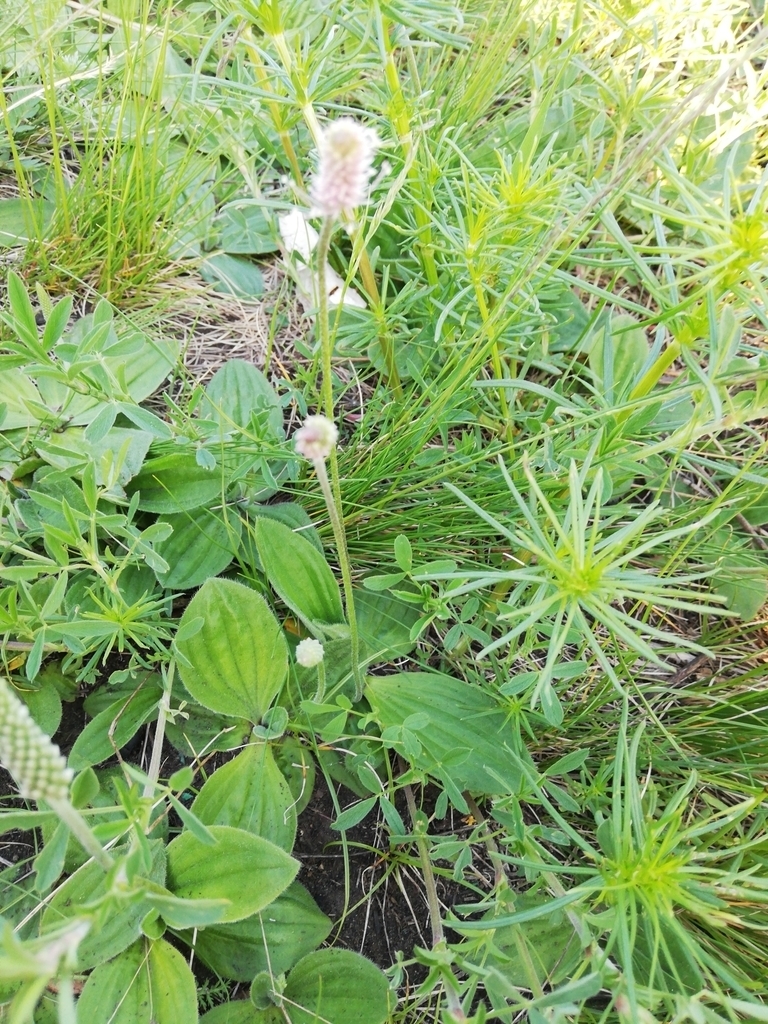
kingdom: Plantae
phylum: Tracheophyta
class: Magnoliopsida
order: Lamiales
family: Plantaginaceae
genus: Plantago
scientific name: Plantago media
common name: Hoary plantain
